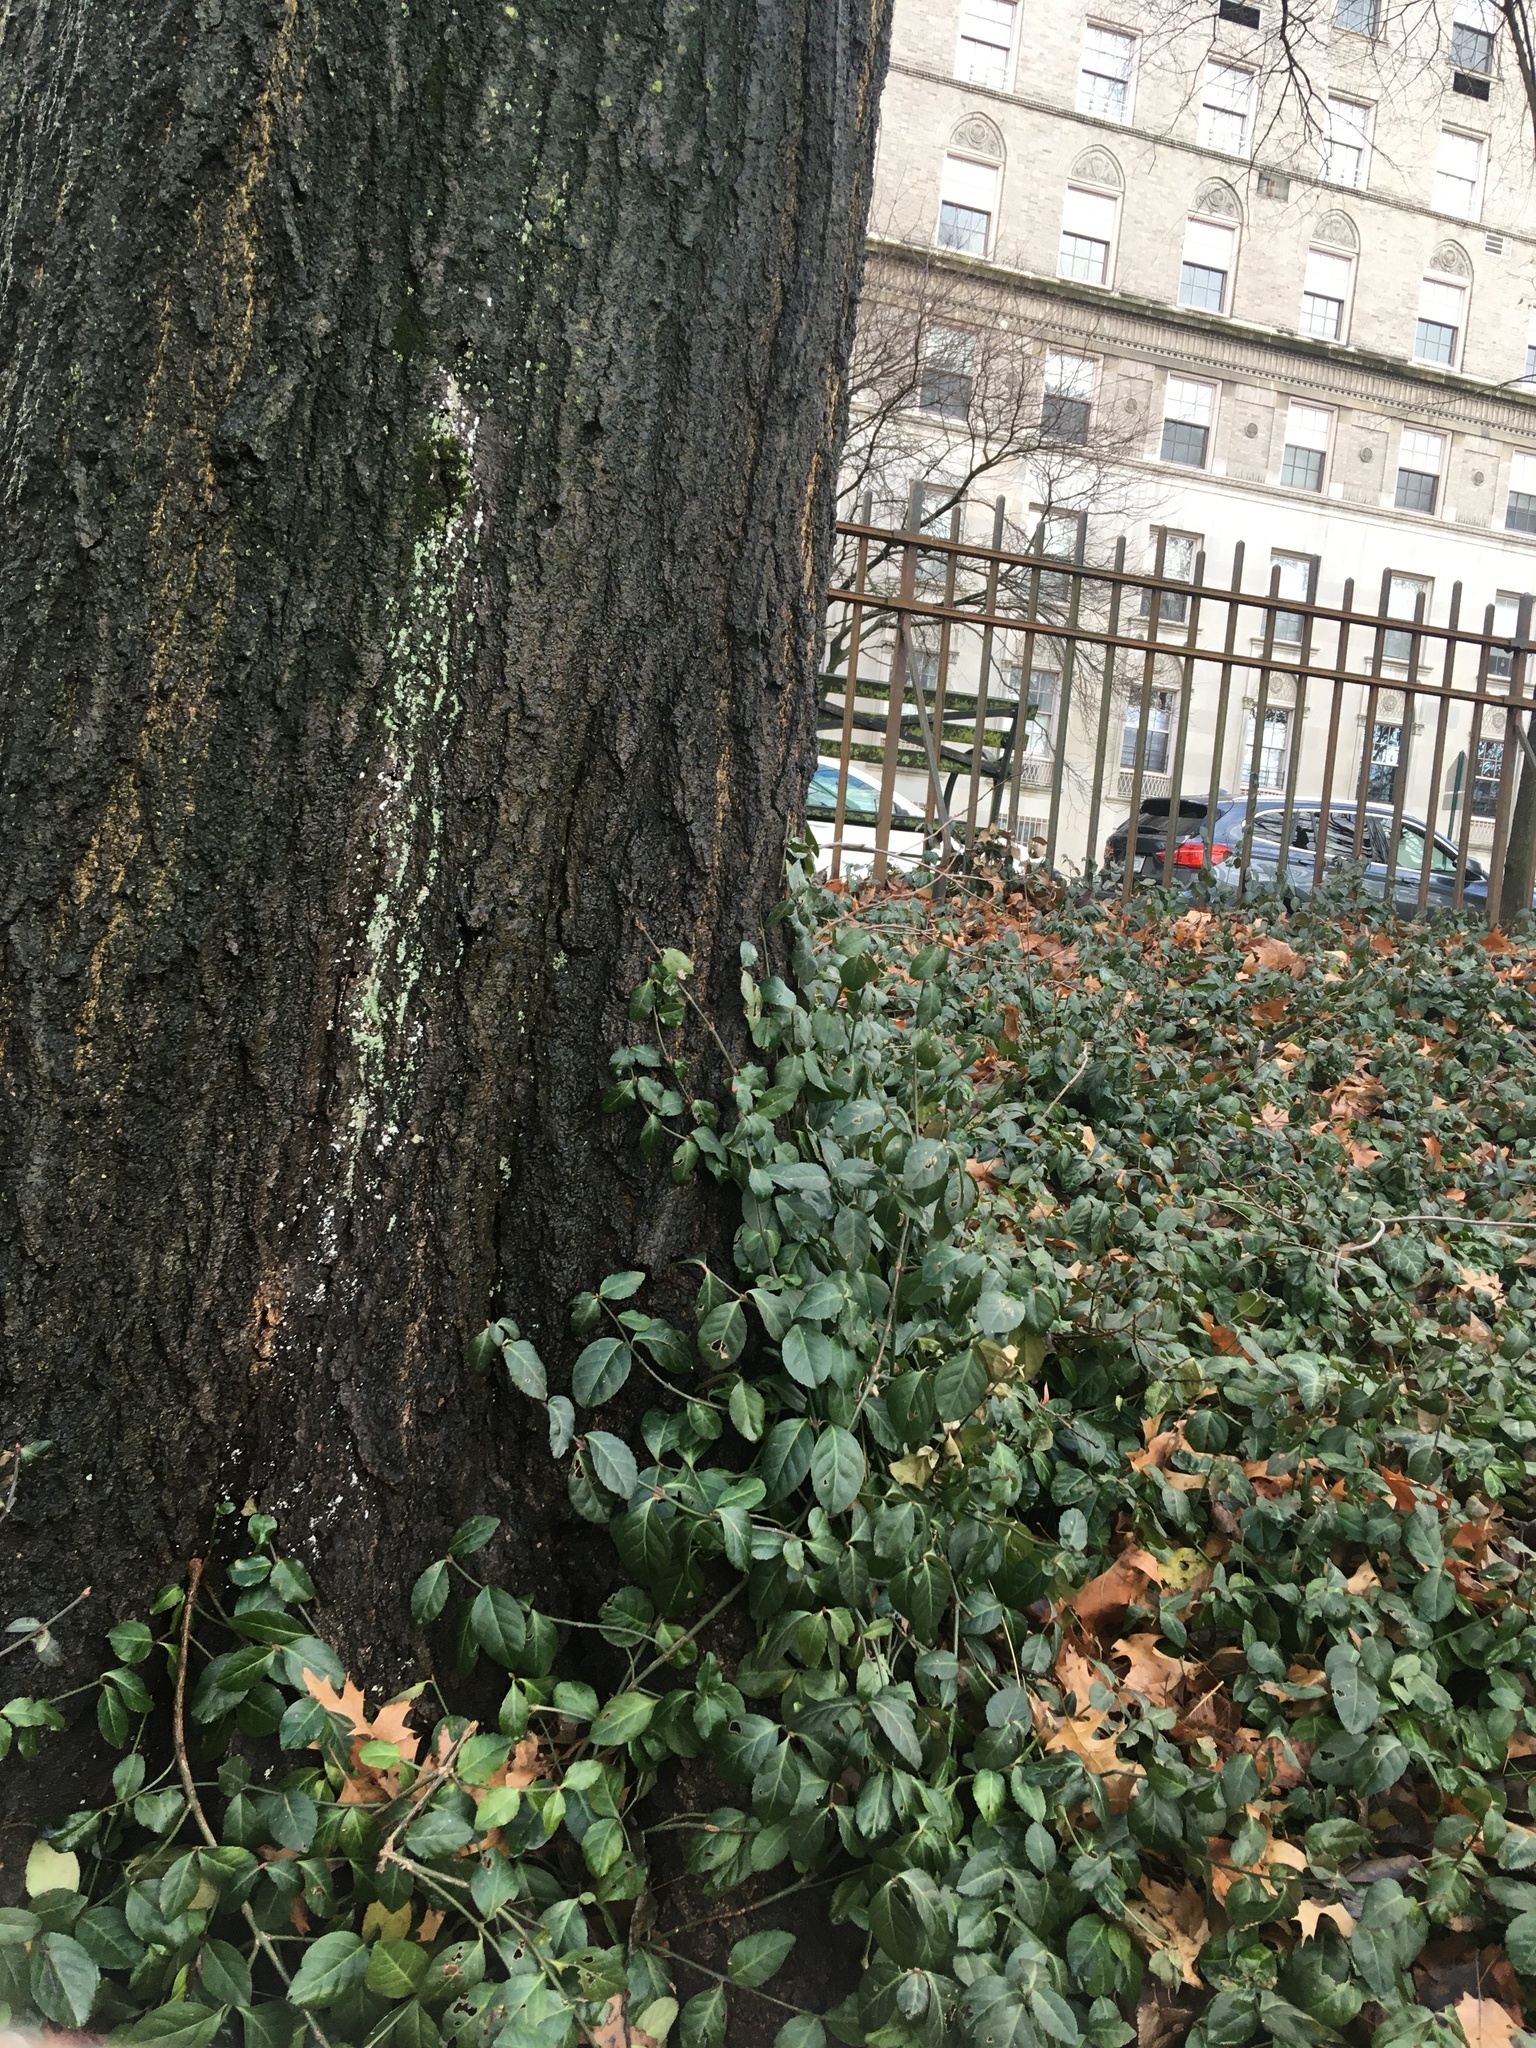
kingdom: Plantae
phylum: Tracheophyta
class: Magnoliopsida
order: Celastrales
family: Celastraceae
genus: Euonymus
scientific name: Euonymus fortunei
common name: Climbing euonymus
